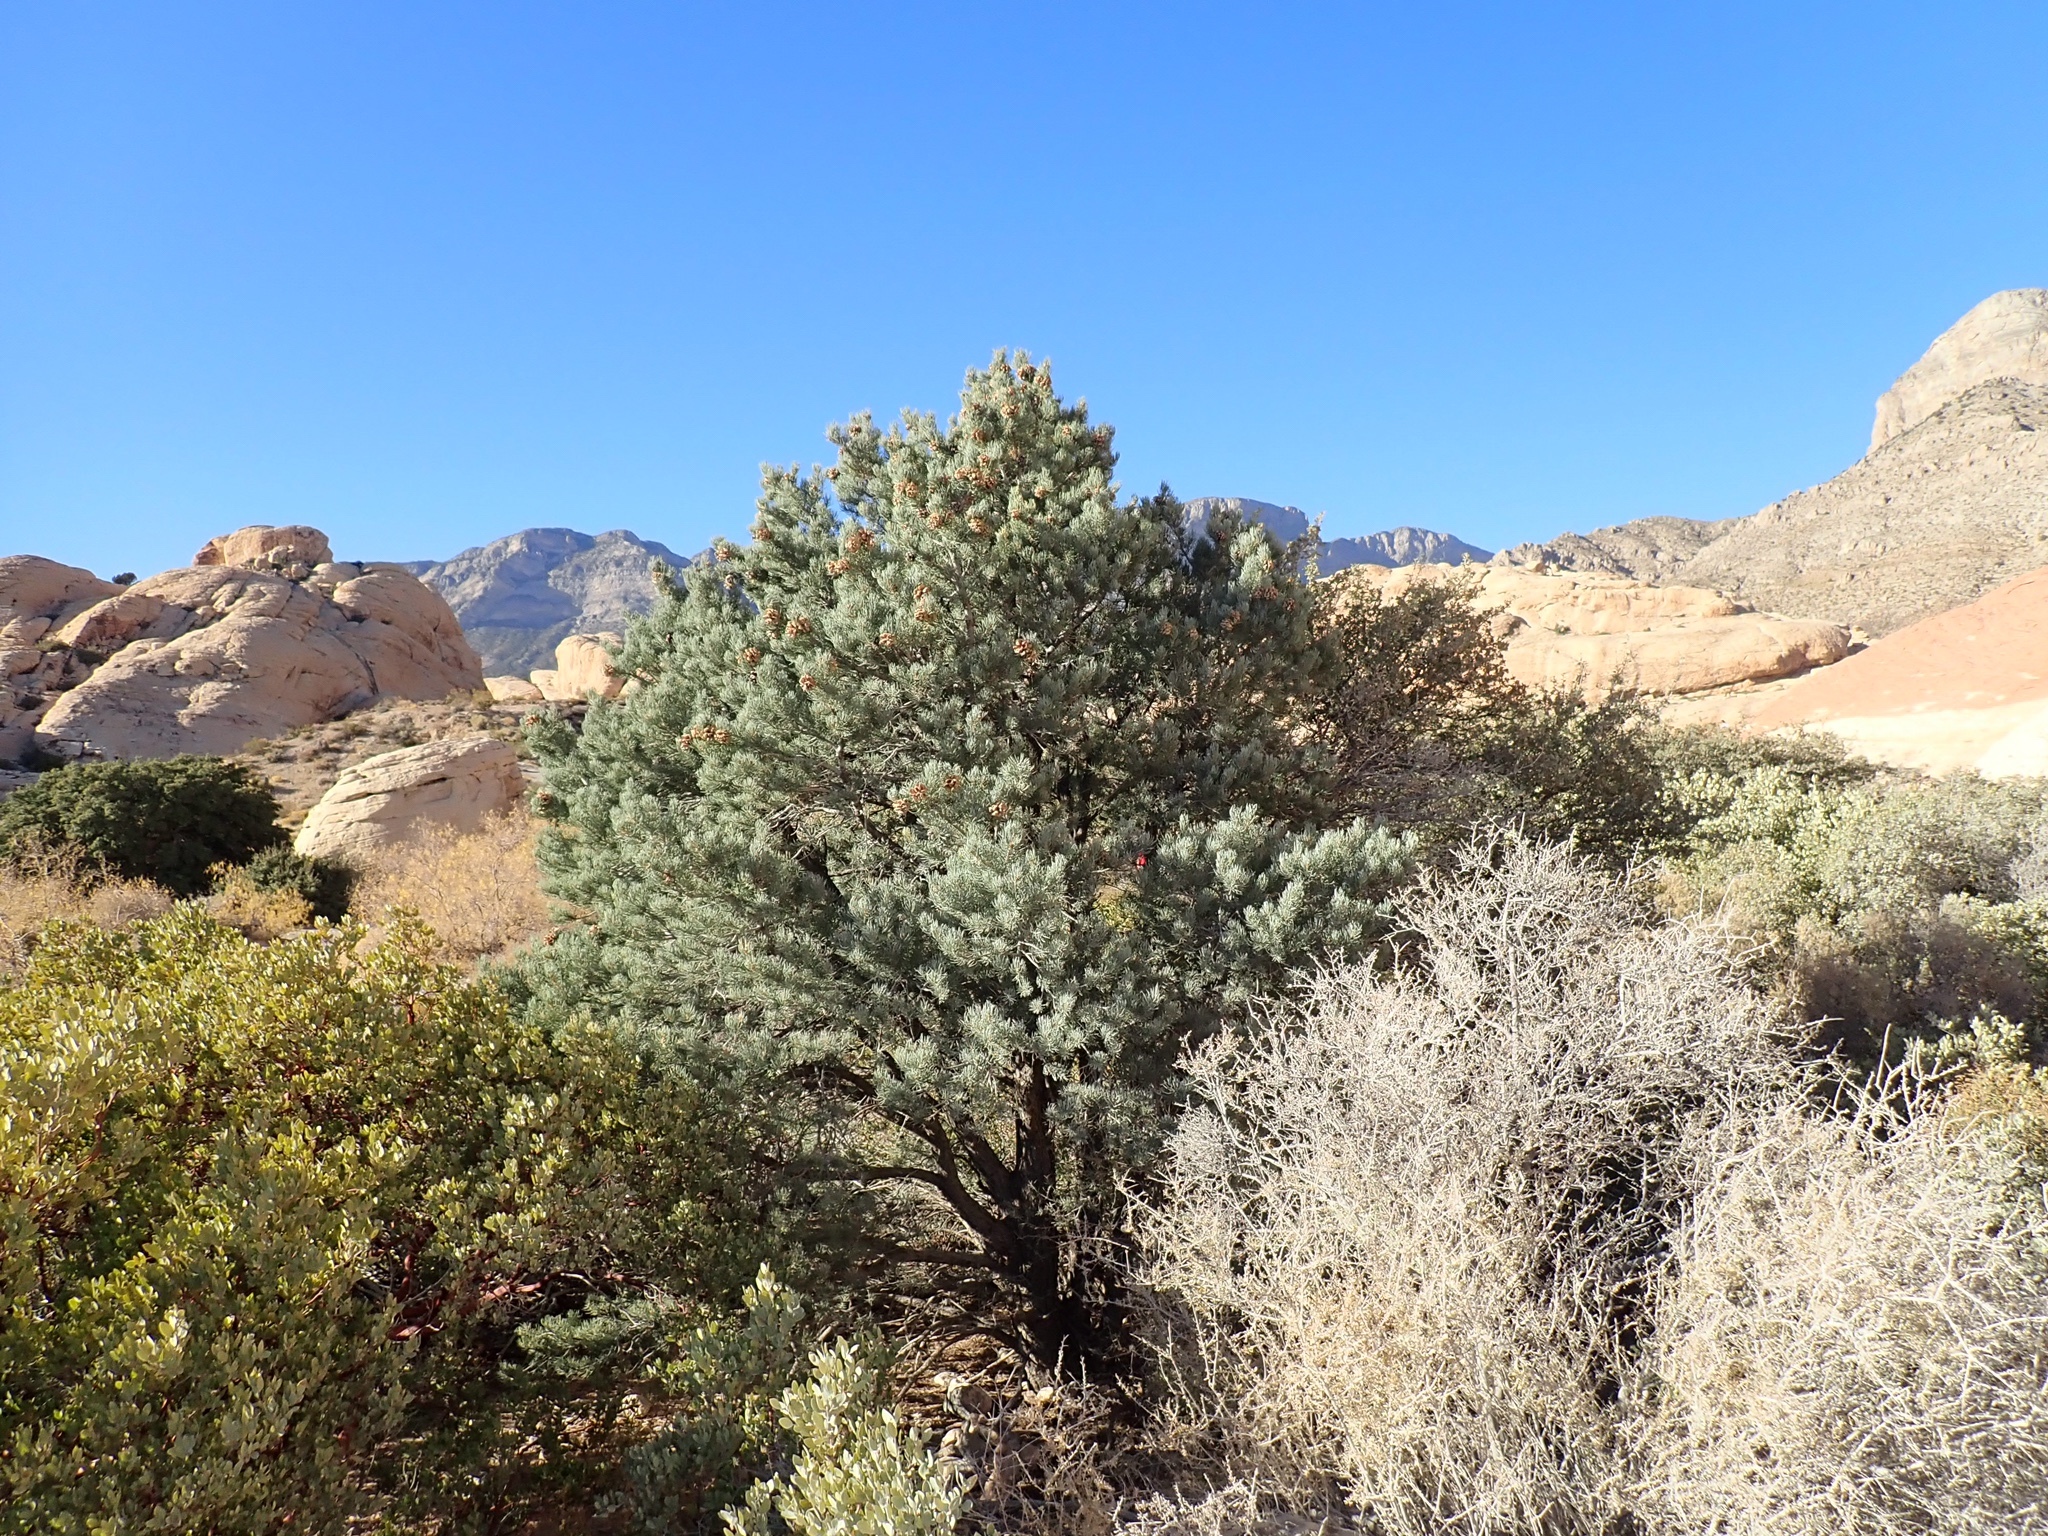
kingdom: Plantae
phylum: Tracheophyta
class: Pinopsida
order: Pinales
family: Pinaceae
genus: Pinus
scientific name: Pinus monophylla
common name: One-leaved nut pine
